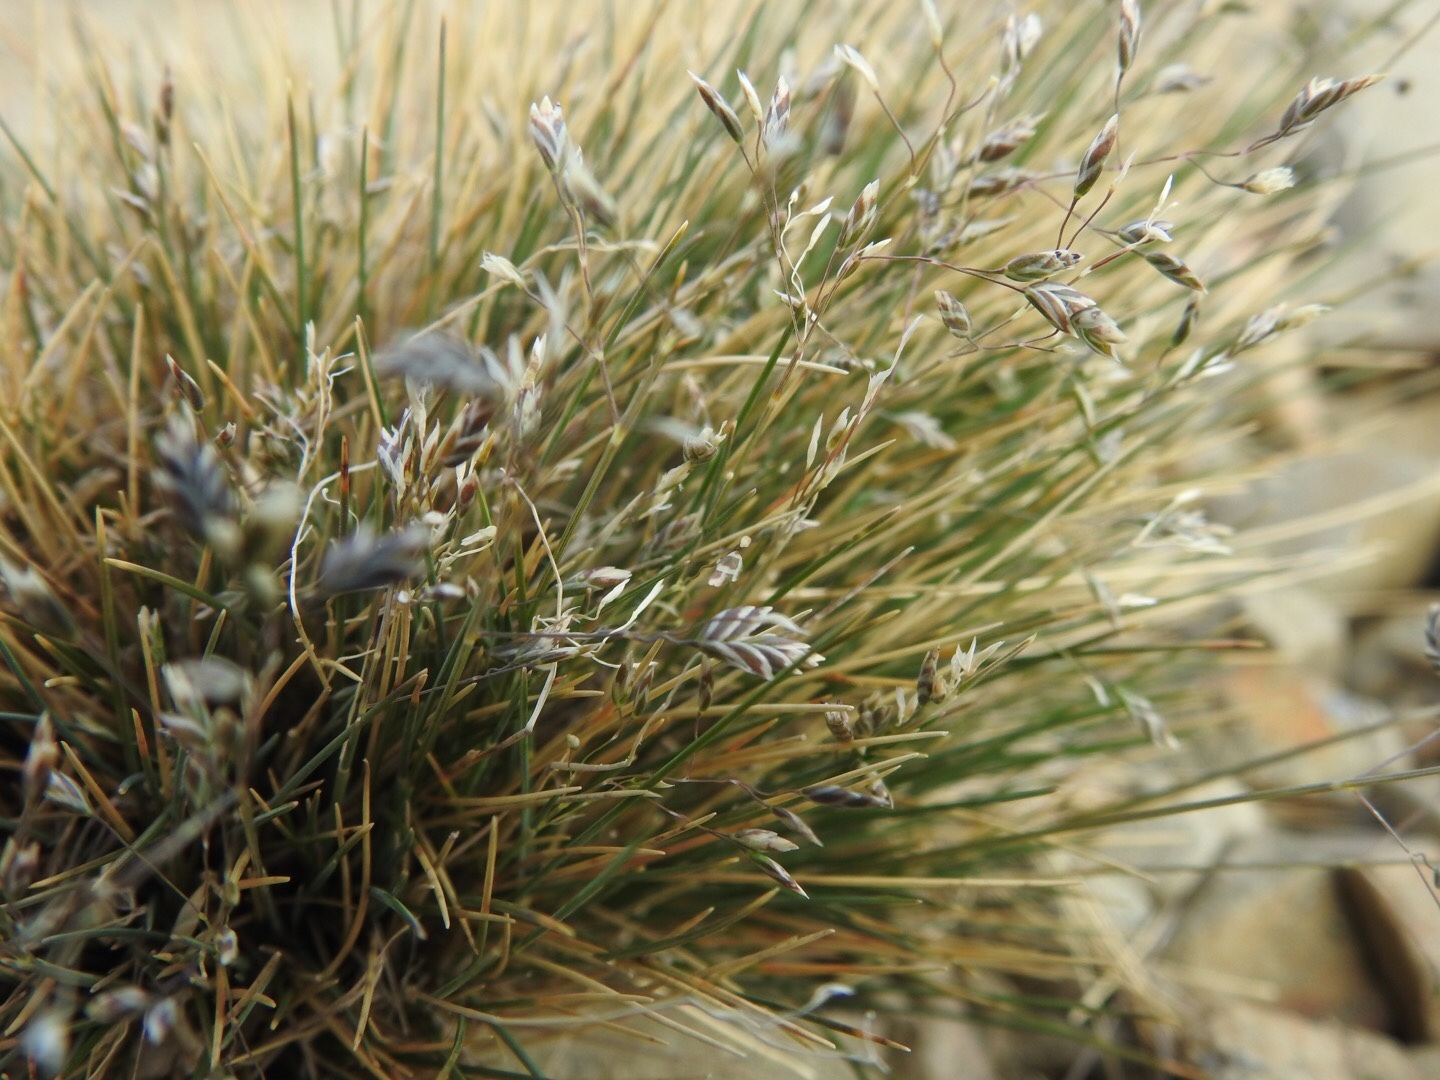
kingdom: Plantae
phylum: Tracheophyta
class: Liliopsida
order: Poales
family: Poaceae
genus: Poa
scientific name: Poa colensoi
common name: Blue tussock
